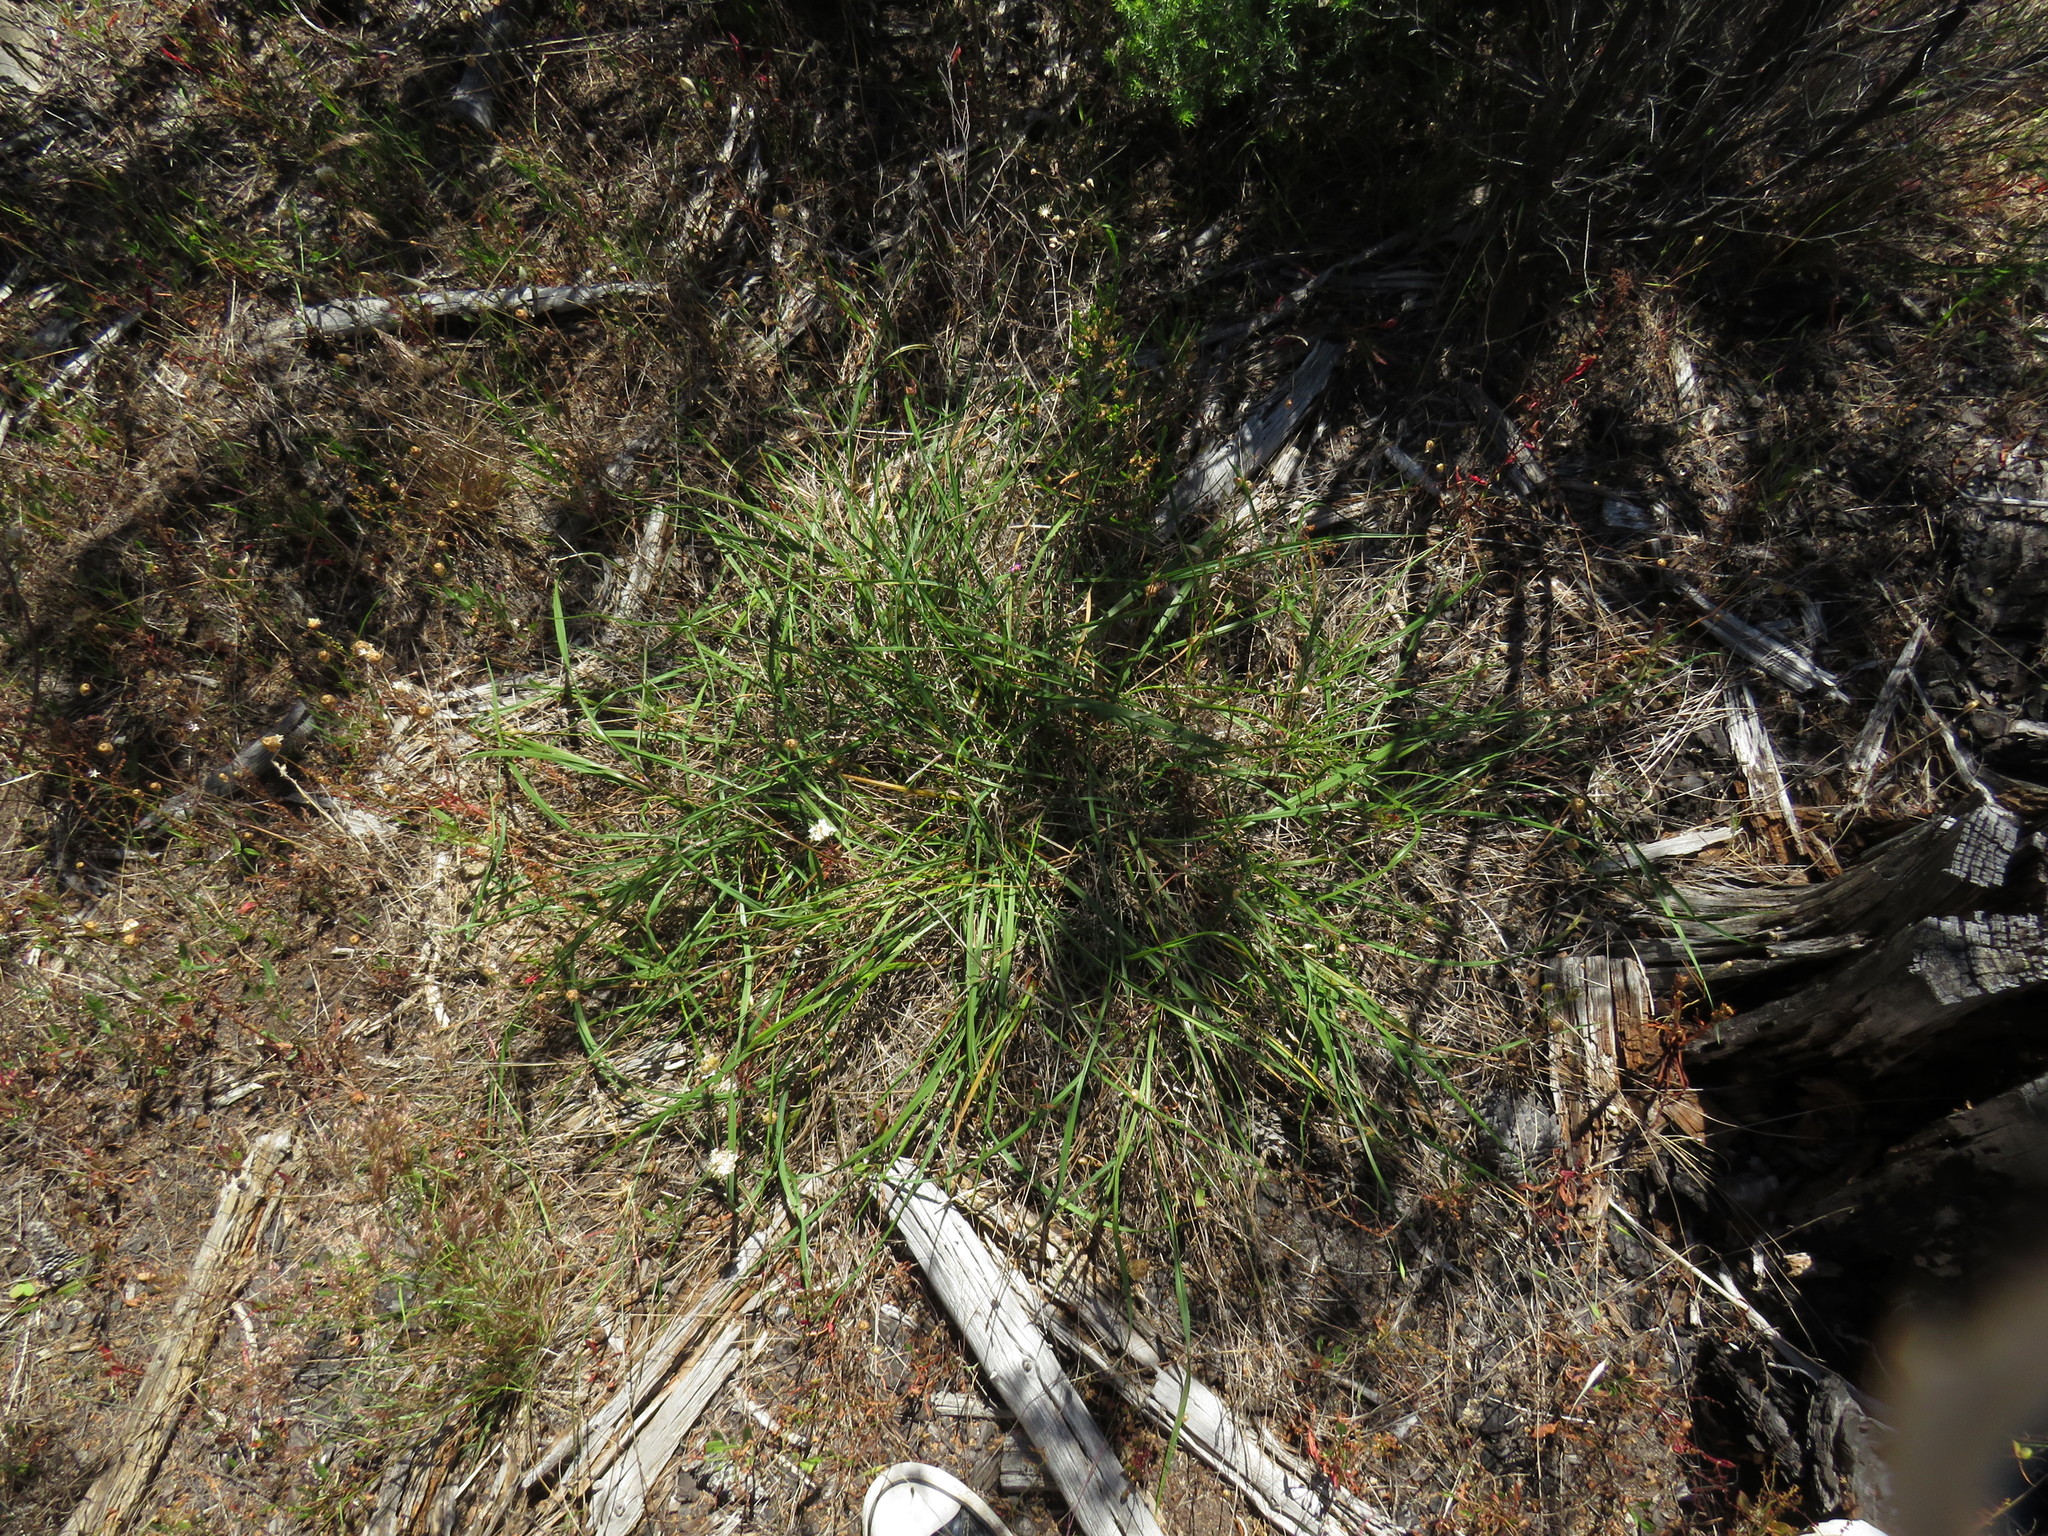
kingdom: Plantae
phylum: Tracheophyta
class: Liliopsida
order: Asparagales
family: Asphodelaceae
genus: Caesia
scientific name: Caesia contorta
